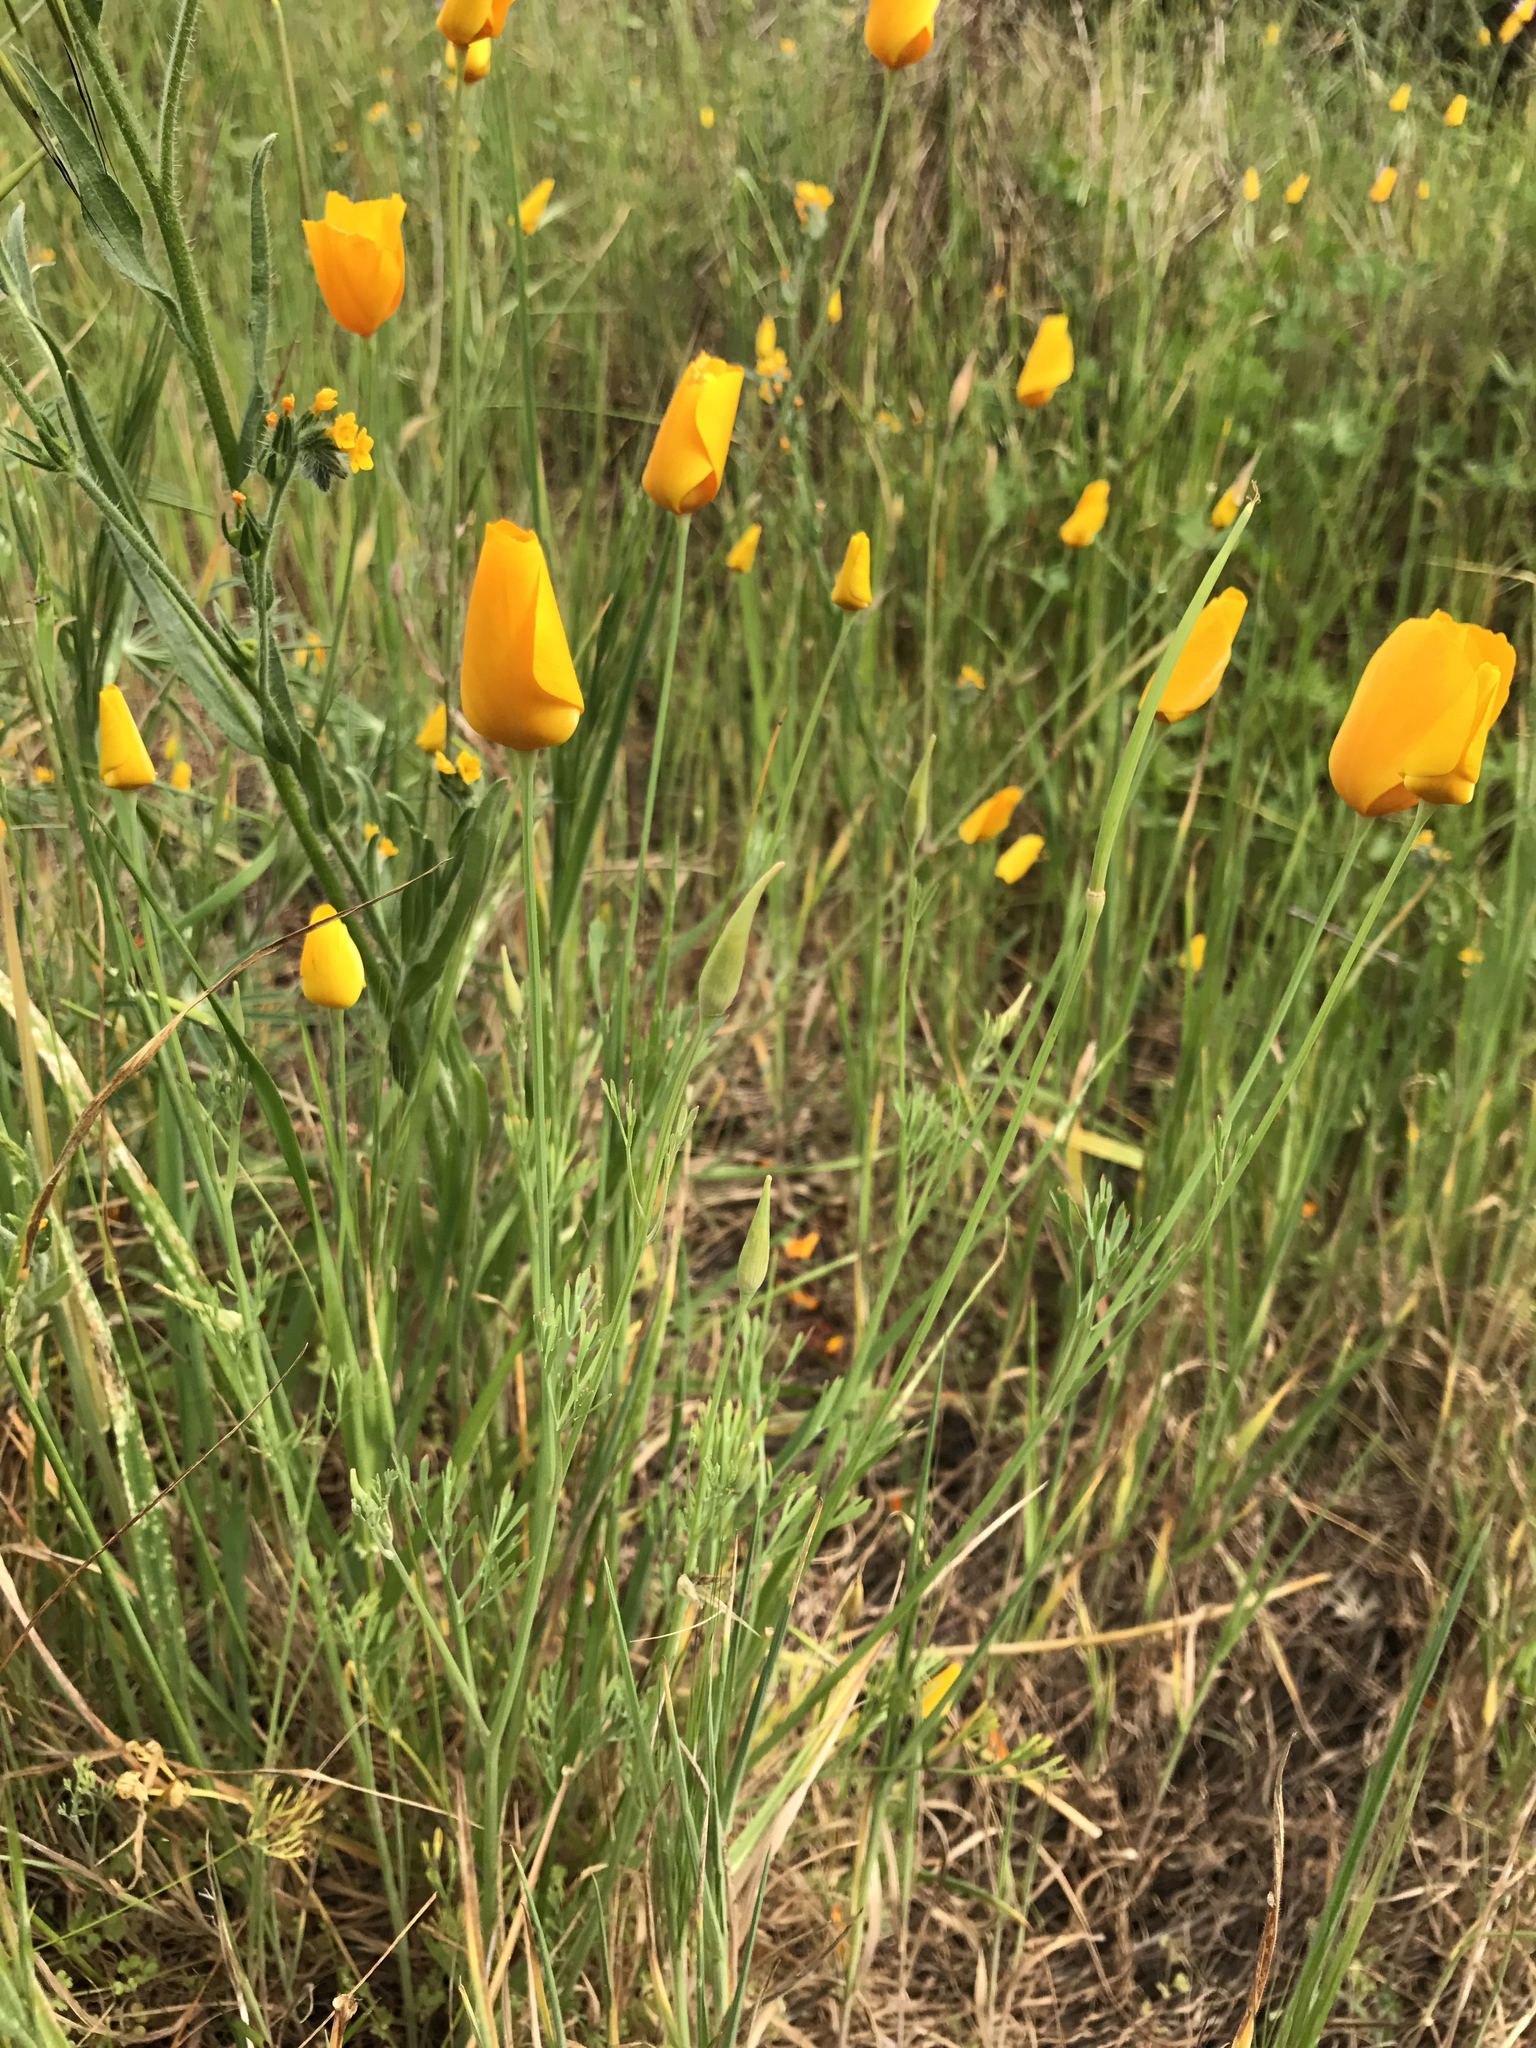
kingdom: Plantae
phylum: Tracheophyta
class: Magnoliopsida
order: Ranunculales
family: Papaveraceae
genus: Eschscholzia
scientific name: Eschscholzia caespitosa
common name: Tufted california-poppy
